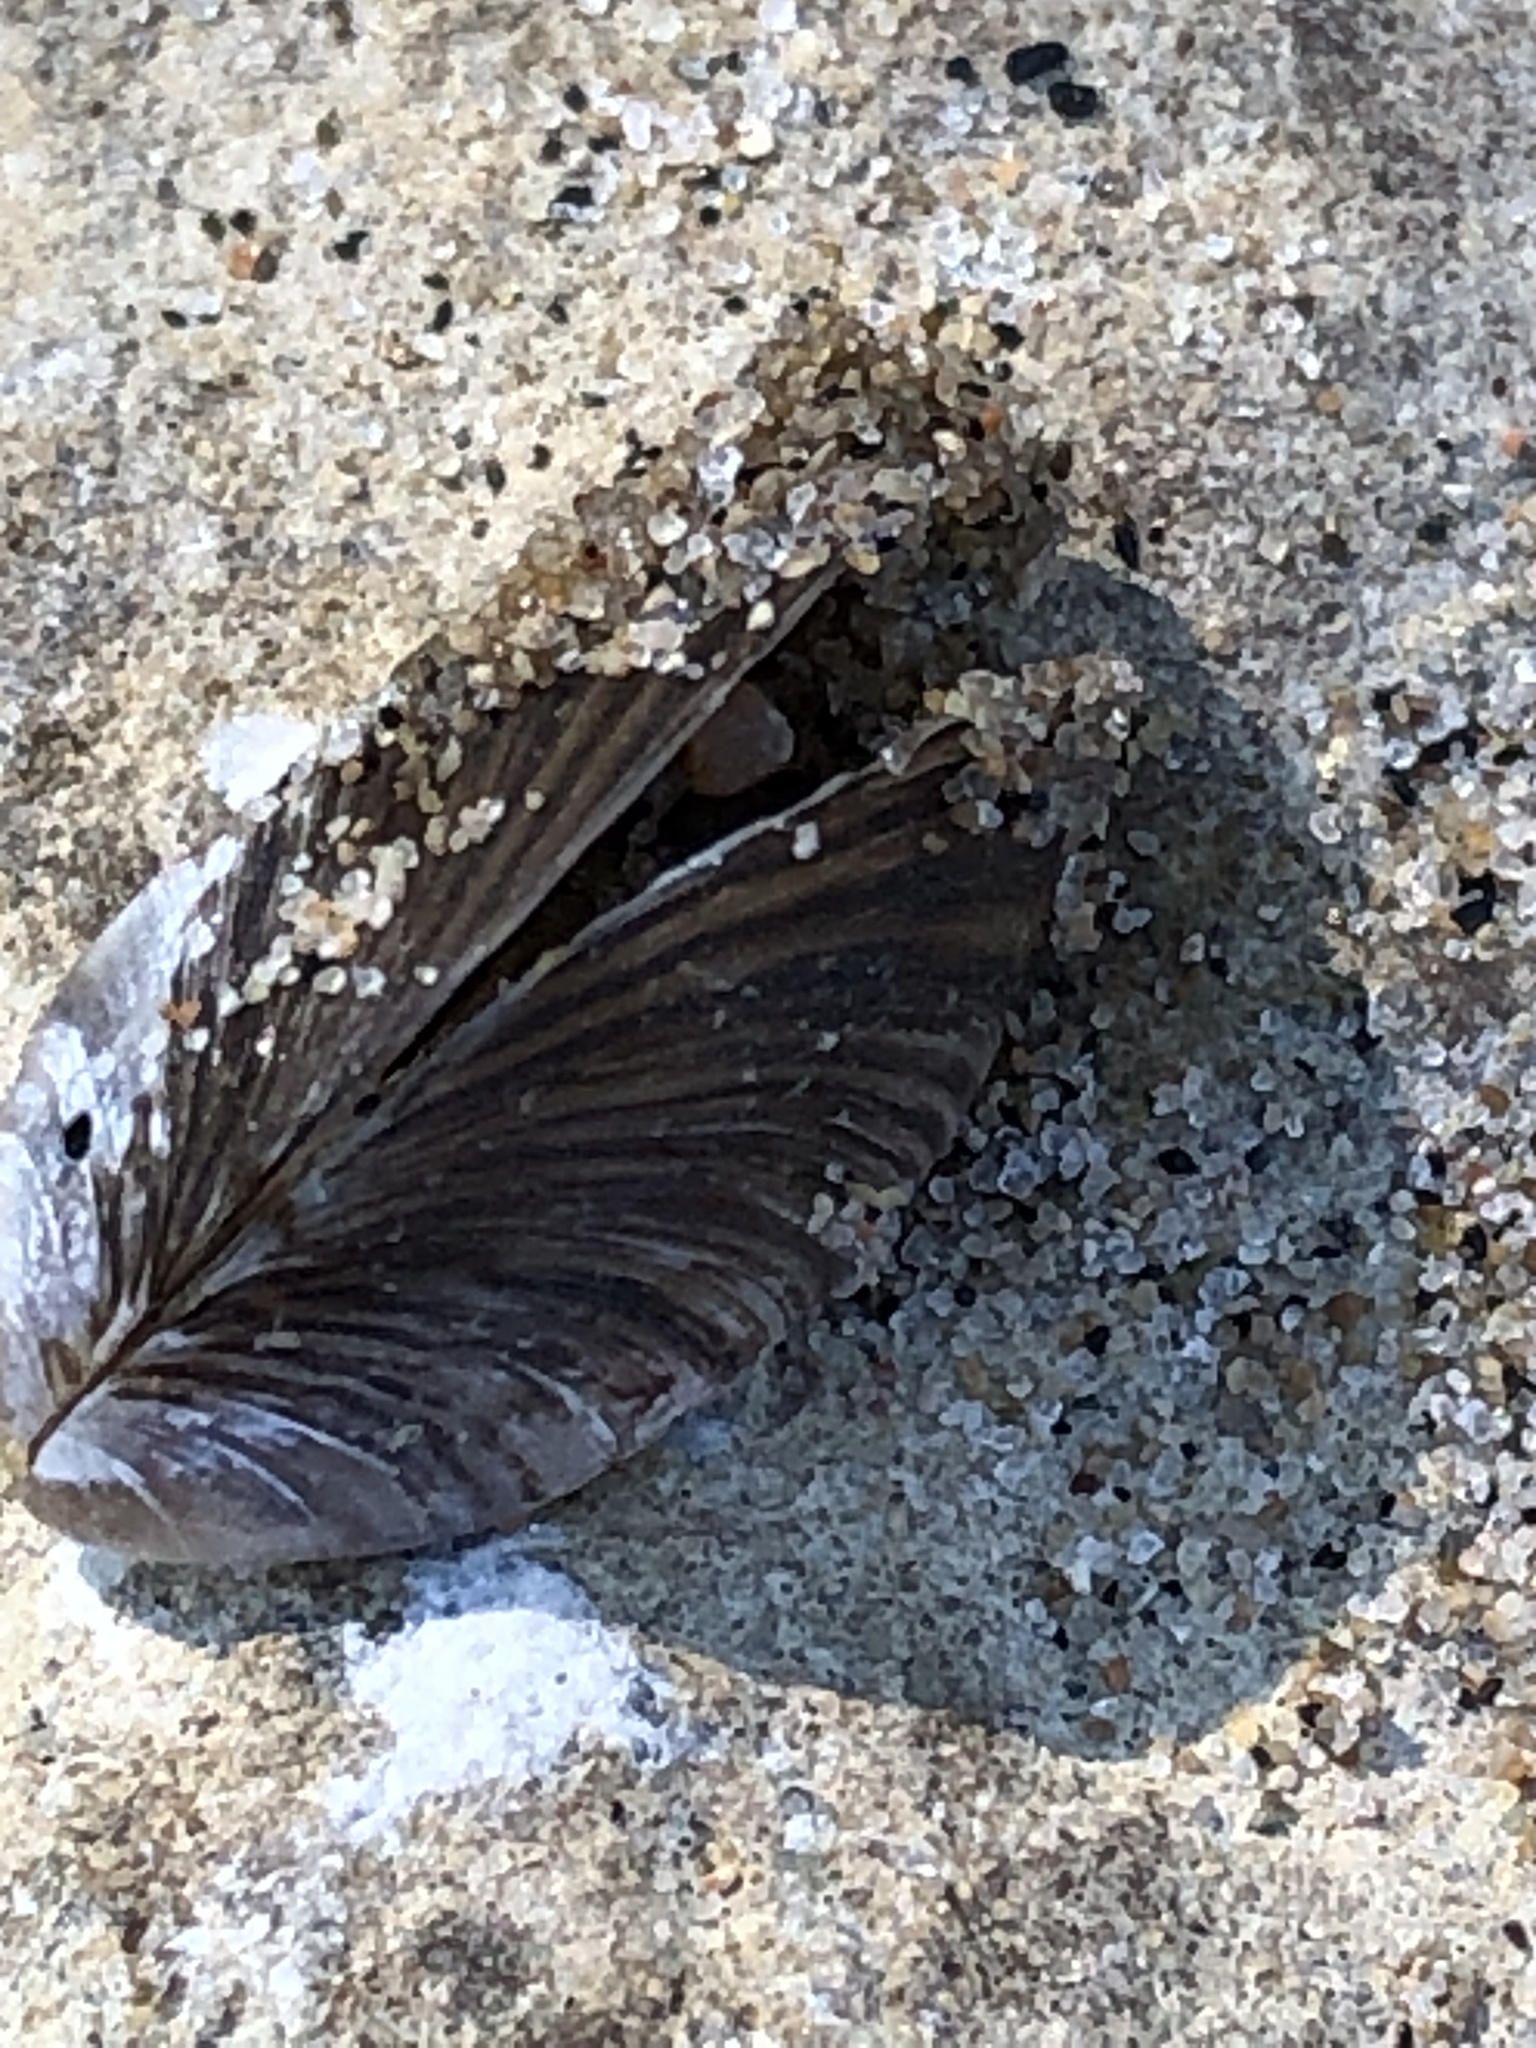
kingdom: Animalia
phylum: Mollusca
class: Bivalvia
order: Myida
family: Dreissenidae
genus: Dreissena
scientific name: Dreissena polymorpha
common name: Zebra mussel
